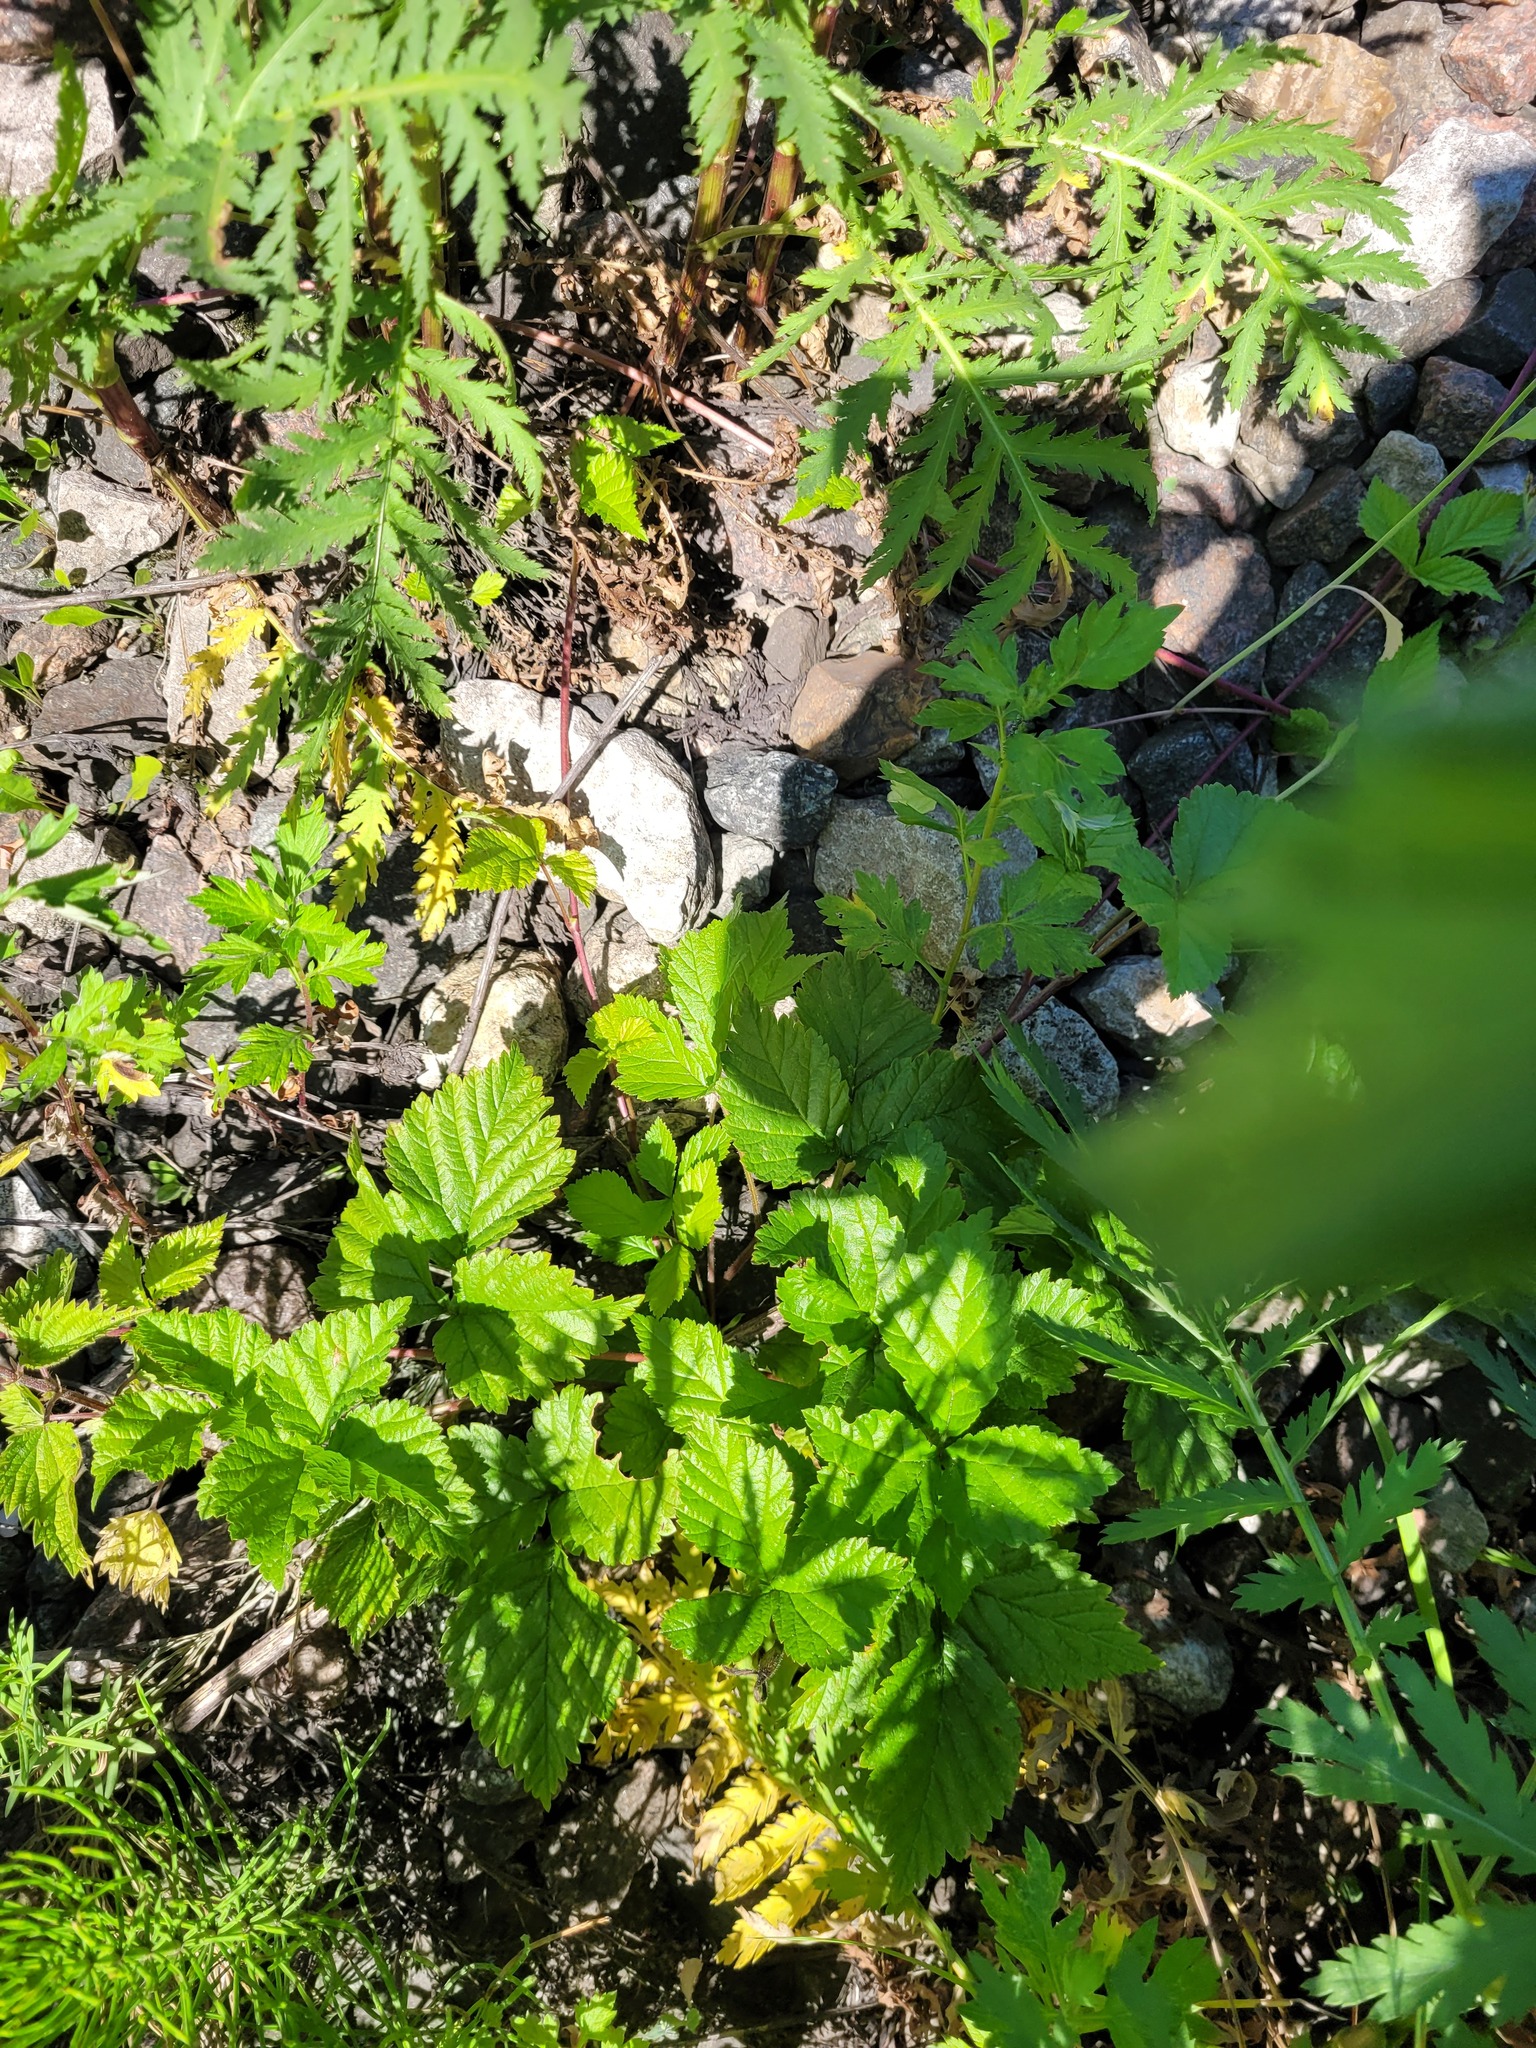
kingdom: Plantae
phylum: Tracheophyta
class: Magnoliopsida
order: Rosales
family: Rosaceae
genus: Rubus
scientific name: Rubus saxatilis
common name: Stone bramble
